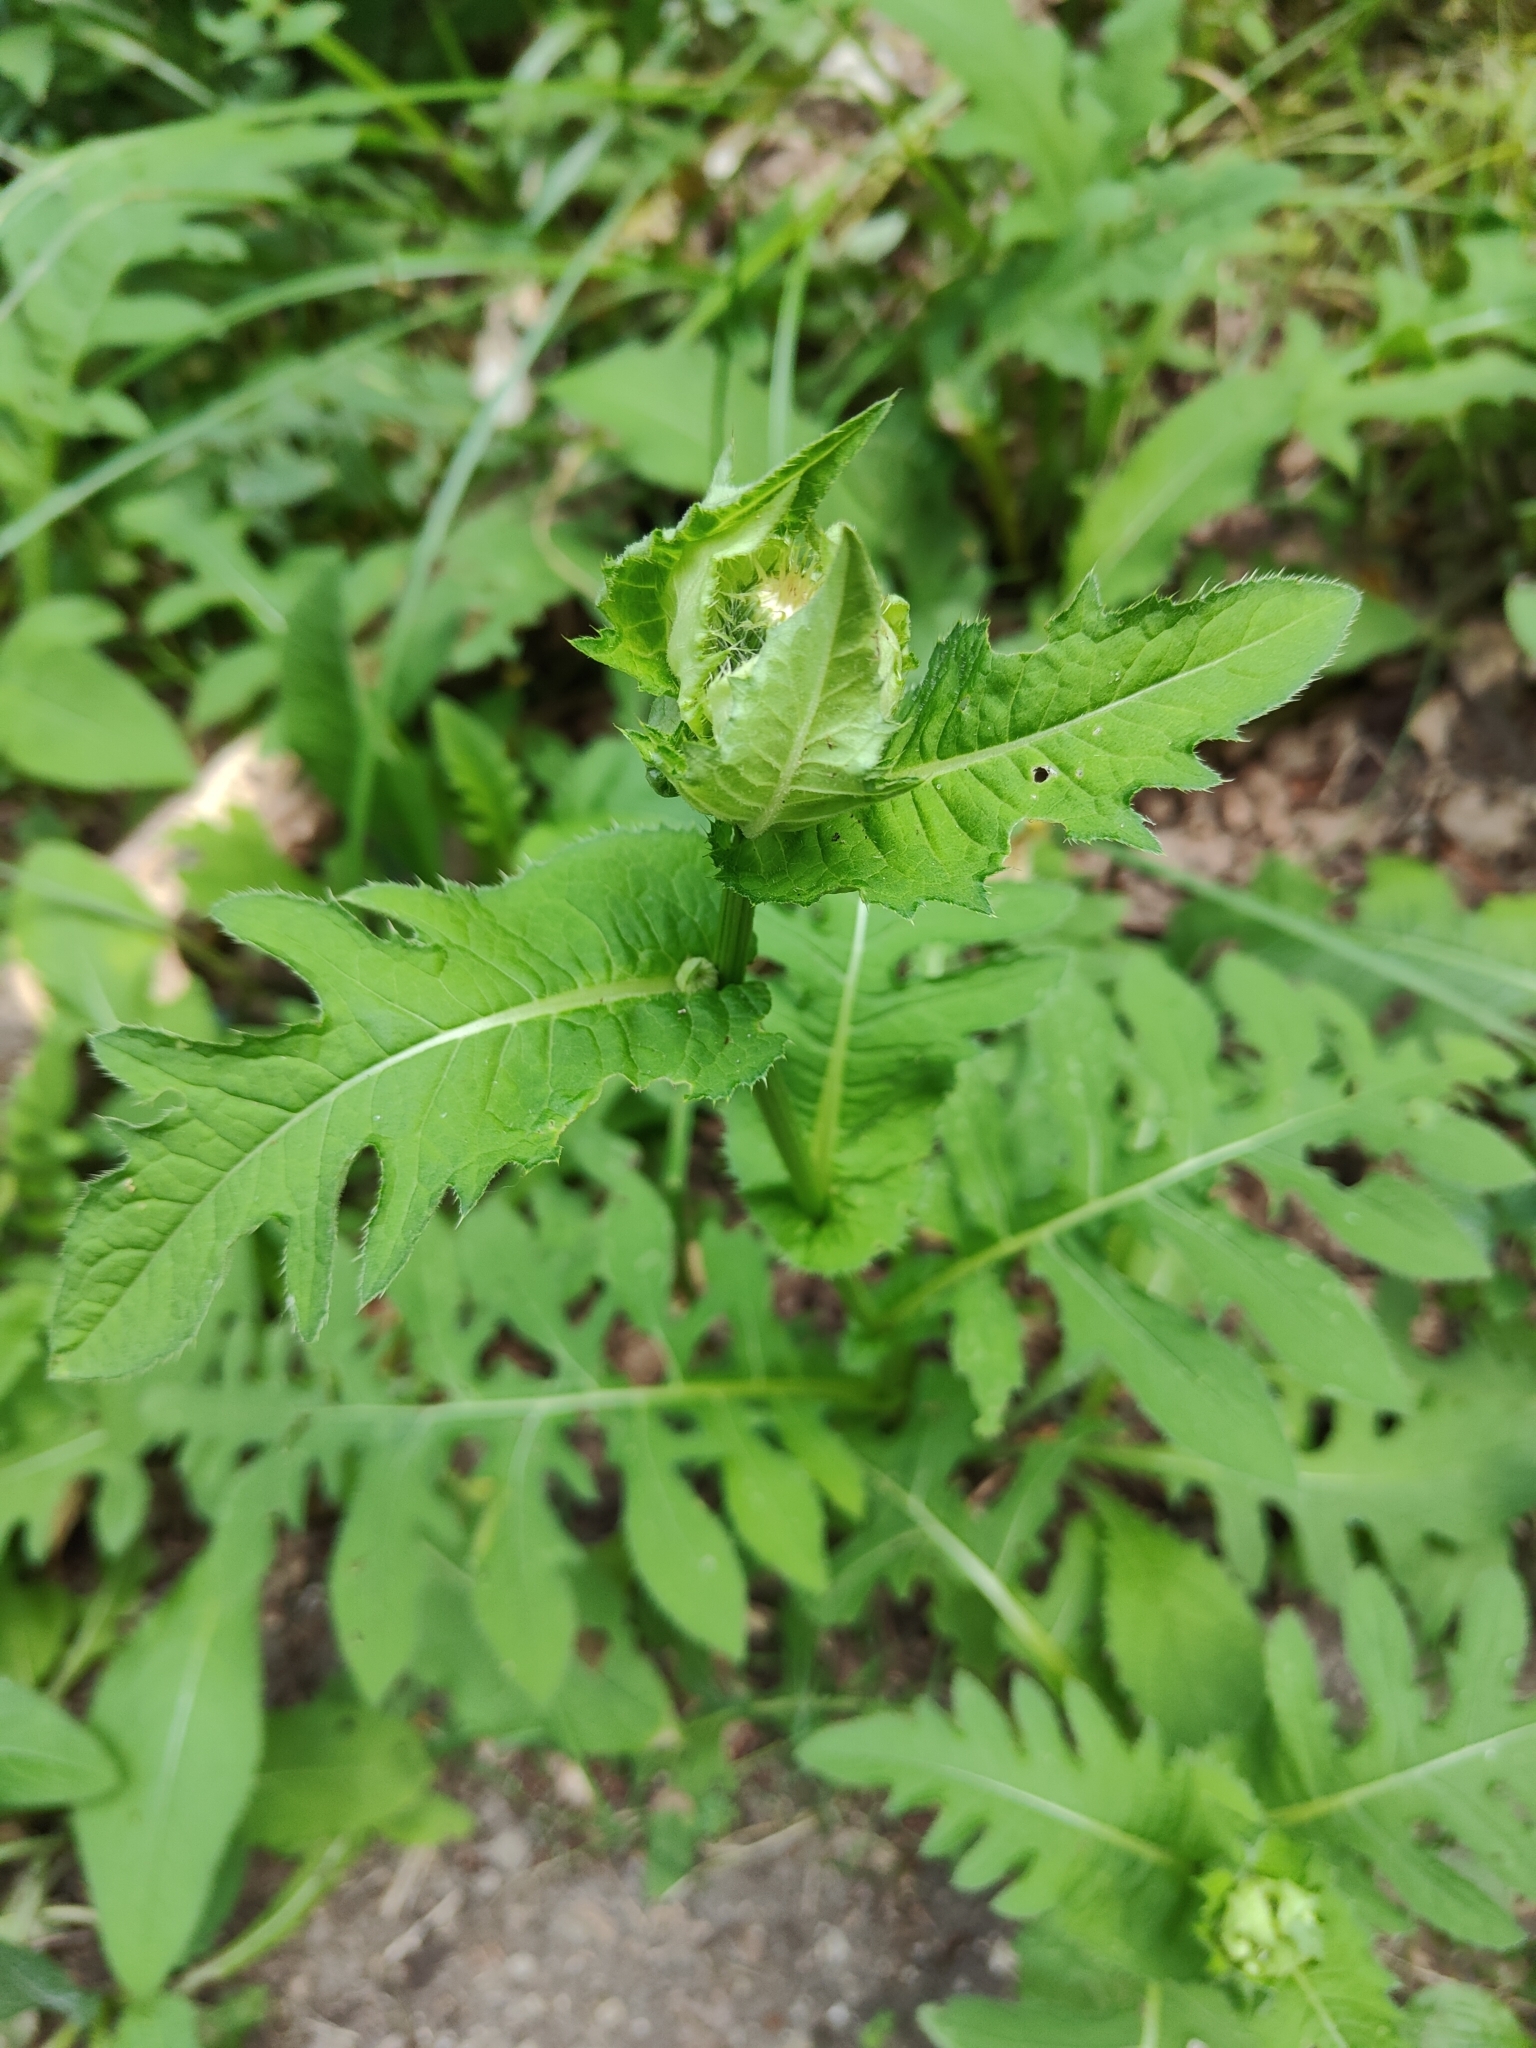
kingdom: Plantae
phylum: Tracheophyta
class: Magnoliopsida
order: Asterales
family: Asteraceae
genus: Cirsium
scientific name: Cirsium oleraceum
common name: Cabbage thistle
